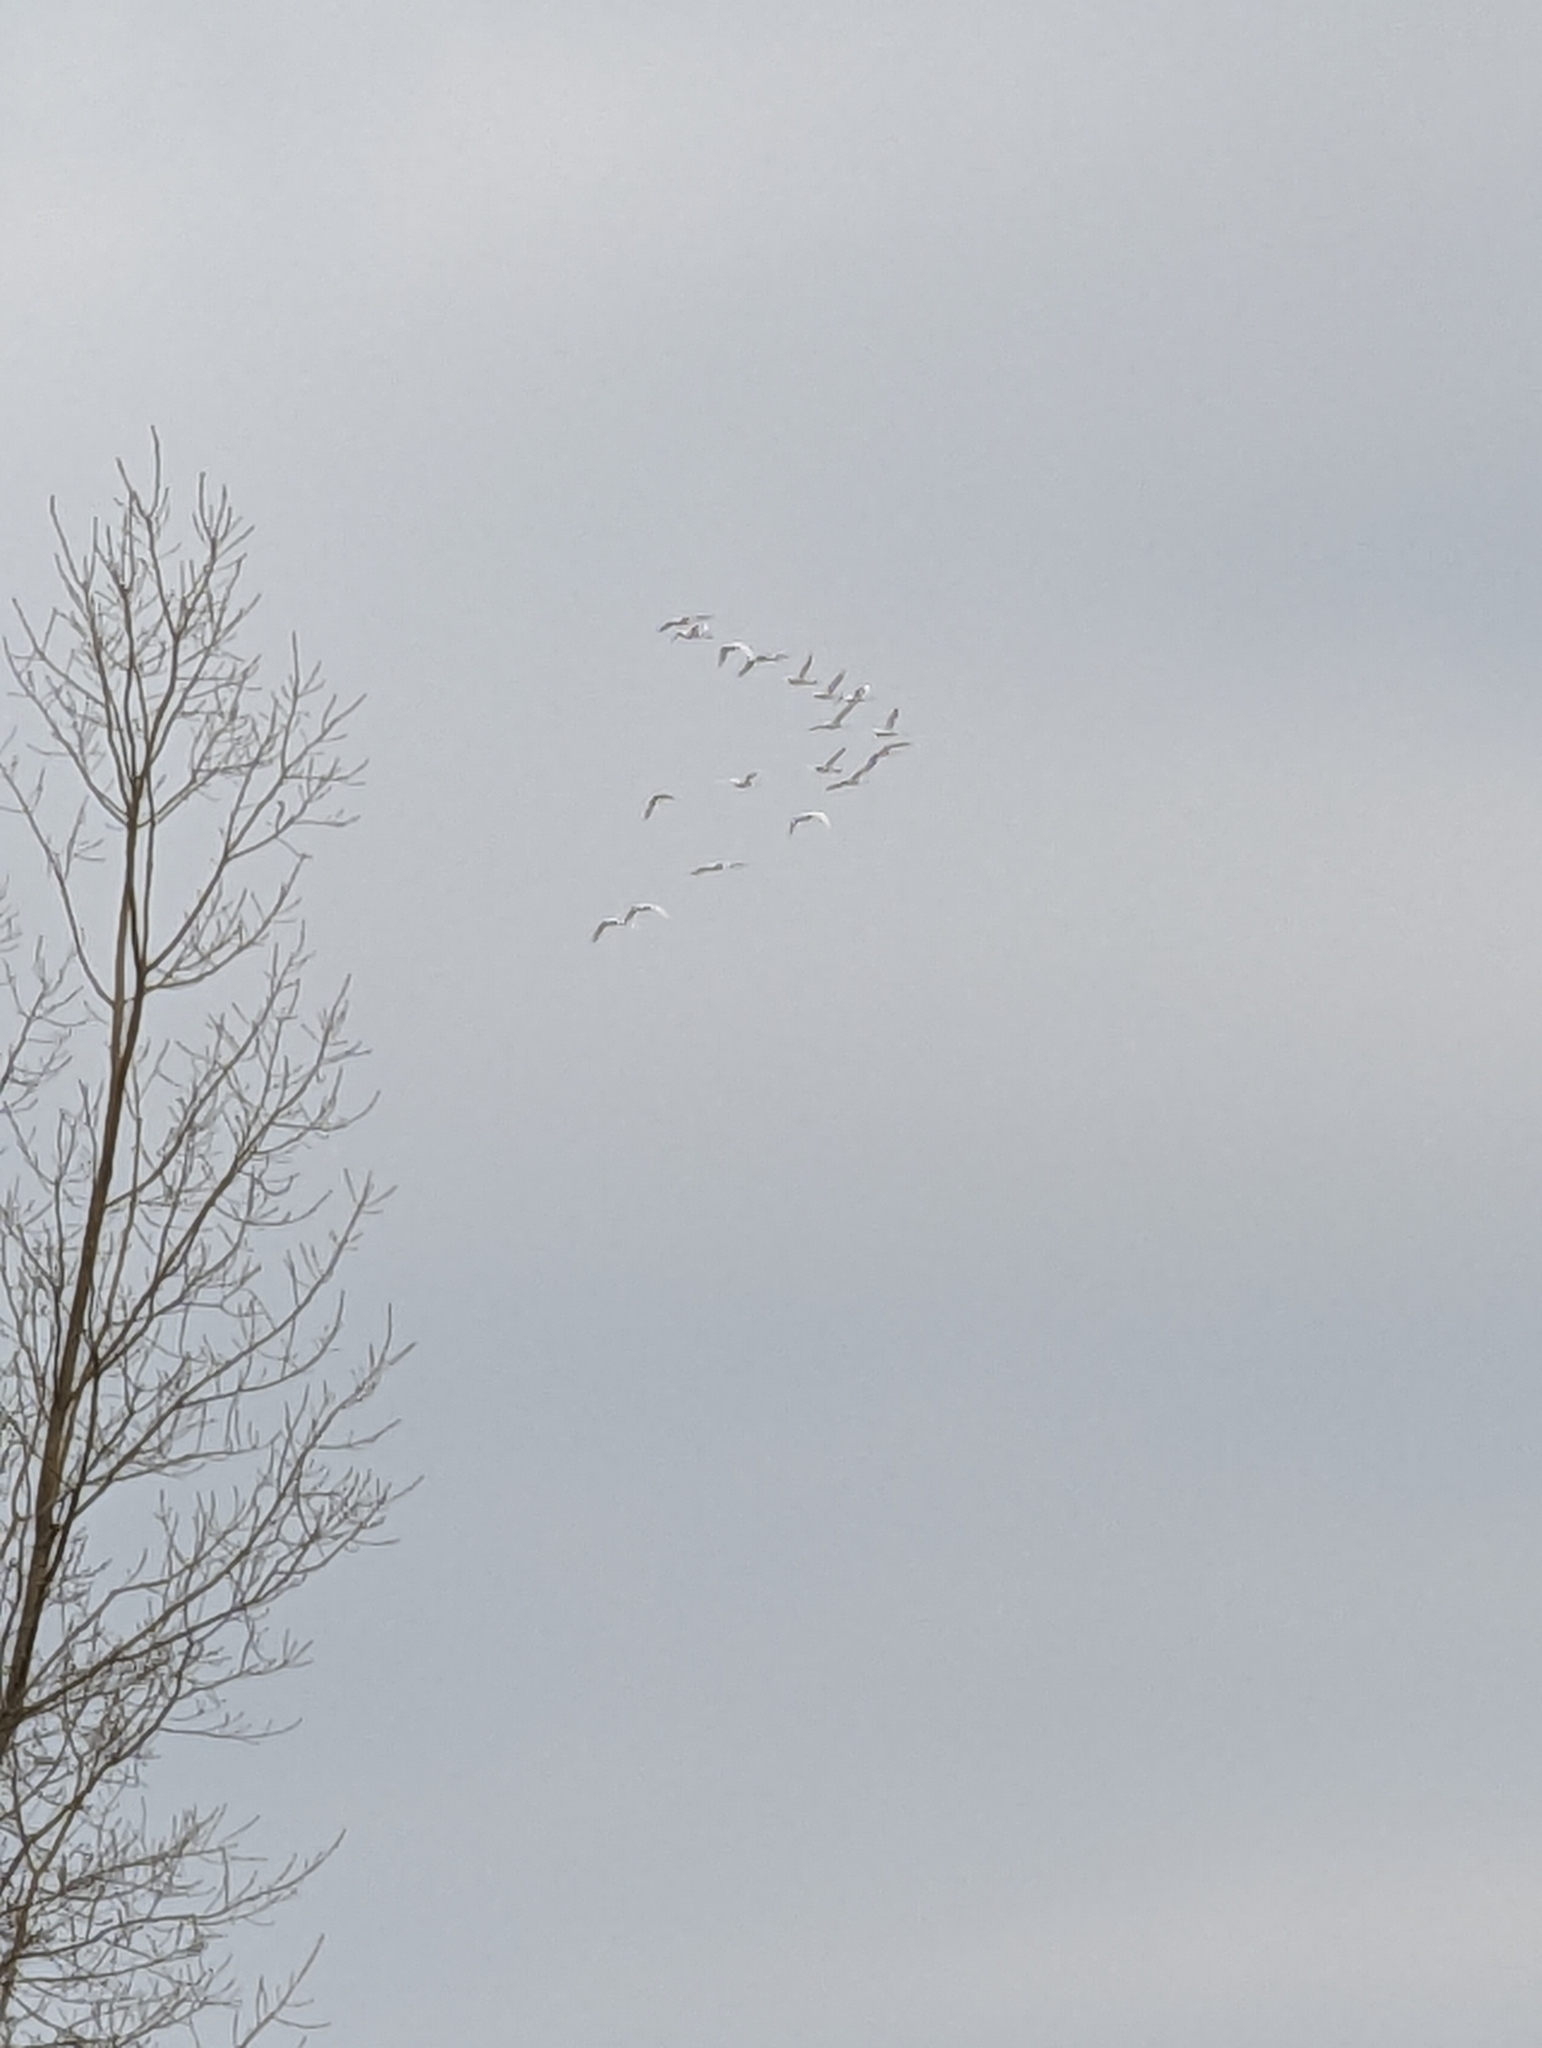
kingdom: Animalia
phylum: Chordata
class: Aves
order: Anseriformes
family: Anatidae
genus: Cygnus
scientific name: Cygnus columbianus
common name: Tundra swan
